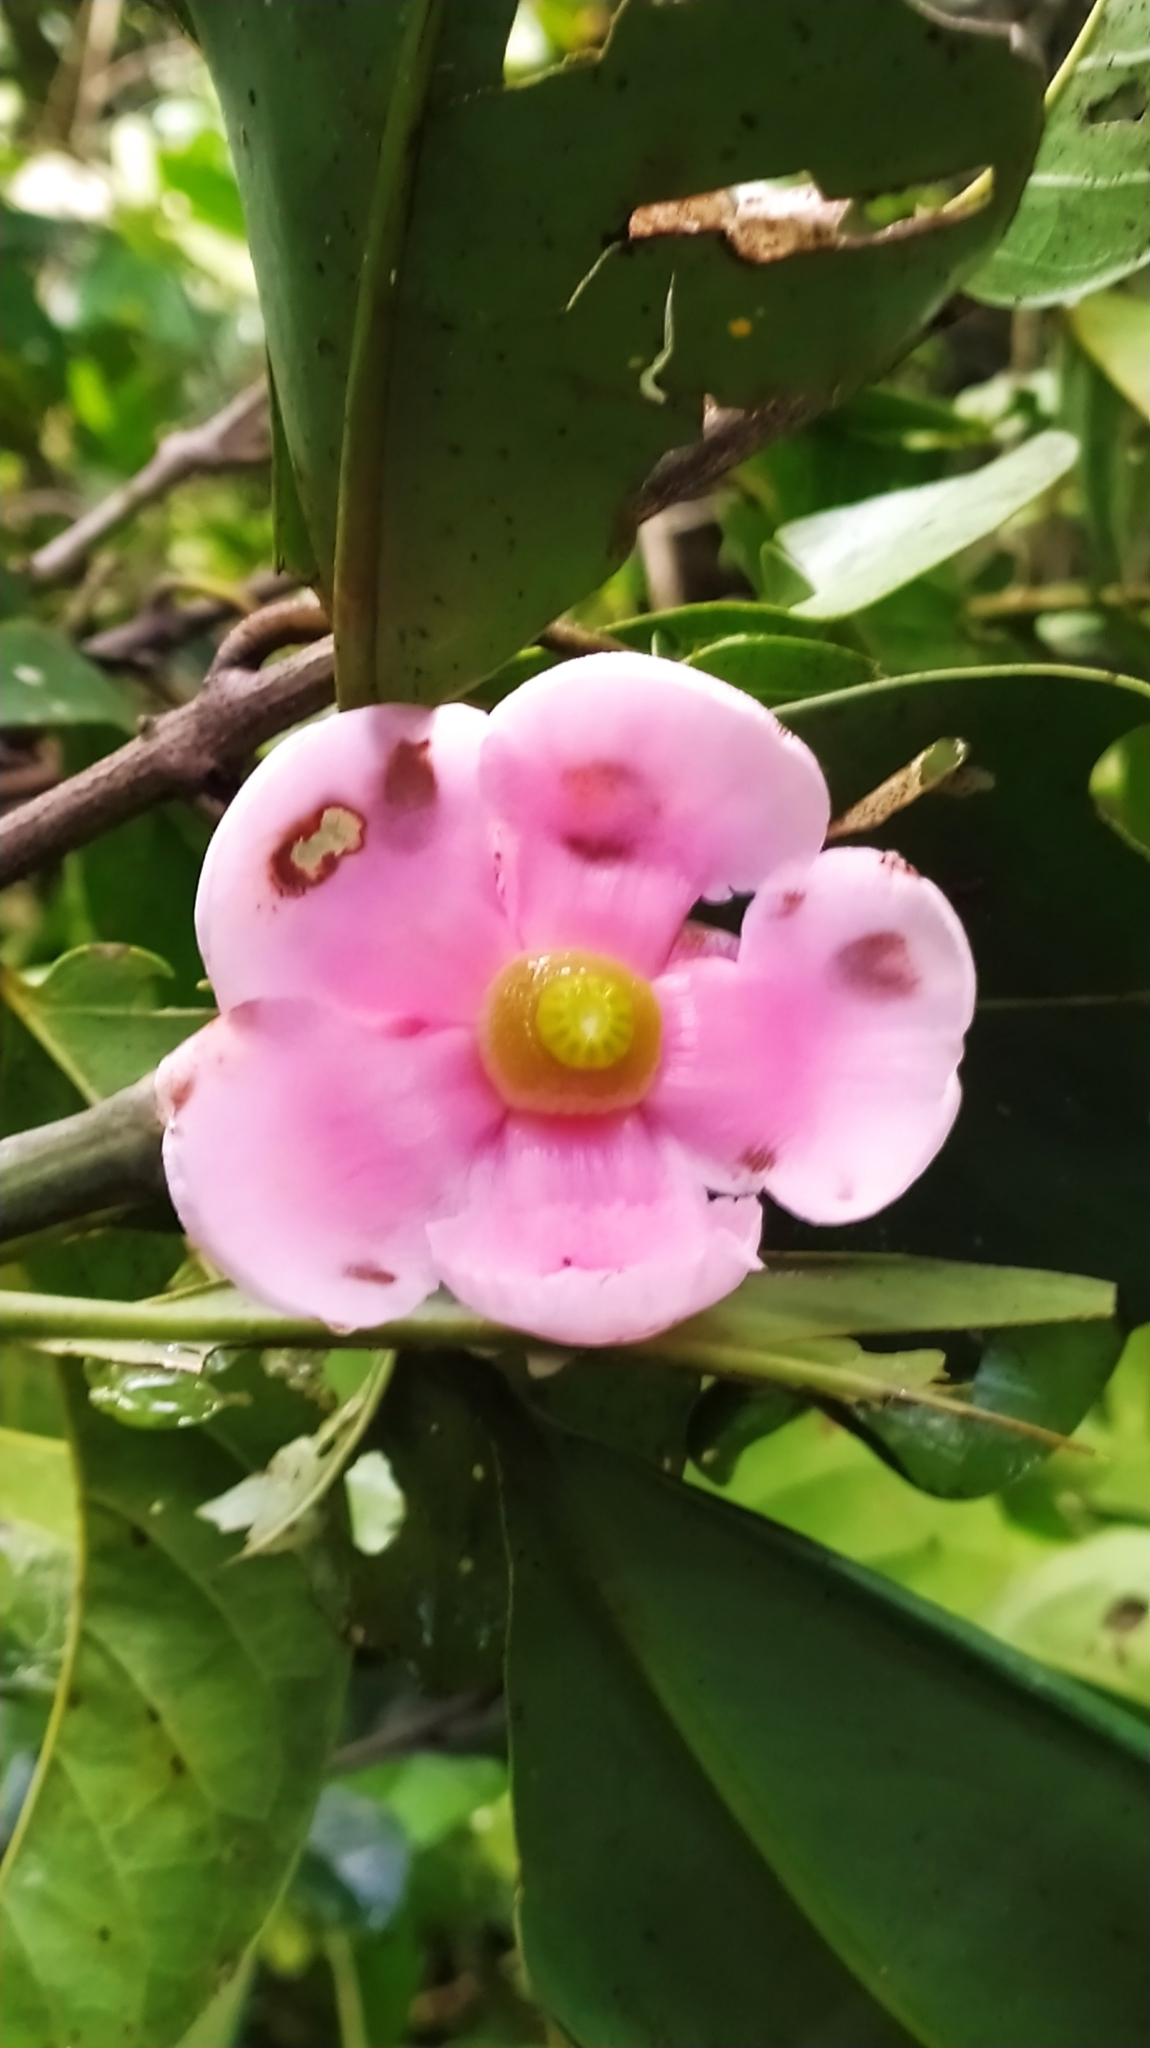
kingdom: Plantae
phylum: Tracheophyta
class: Magnoliopsida
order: Malpighiales
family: Clusiaceae
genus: Clusia
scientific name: Clusia palmicida
